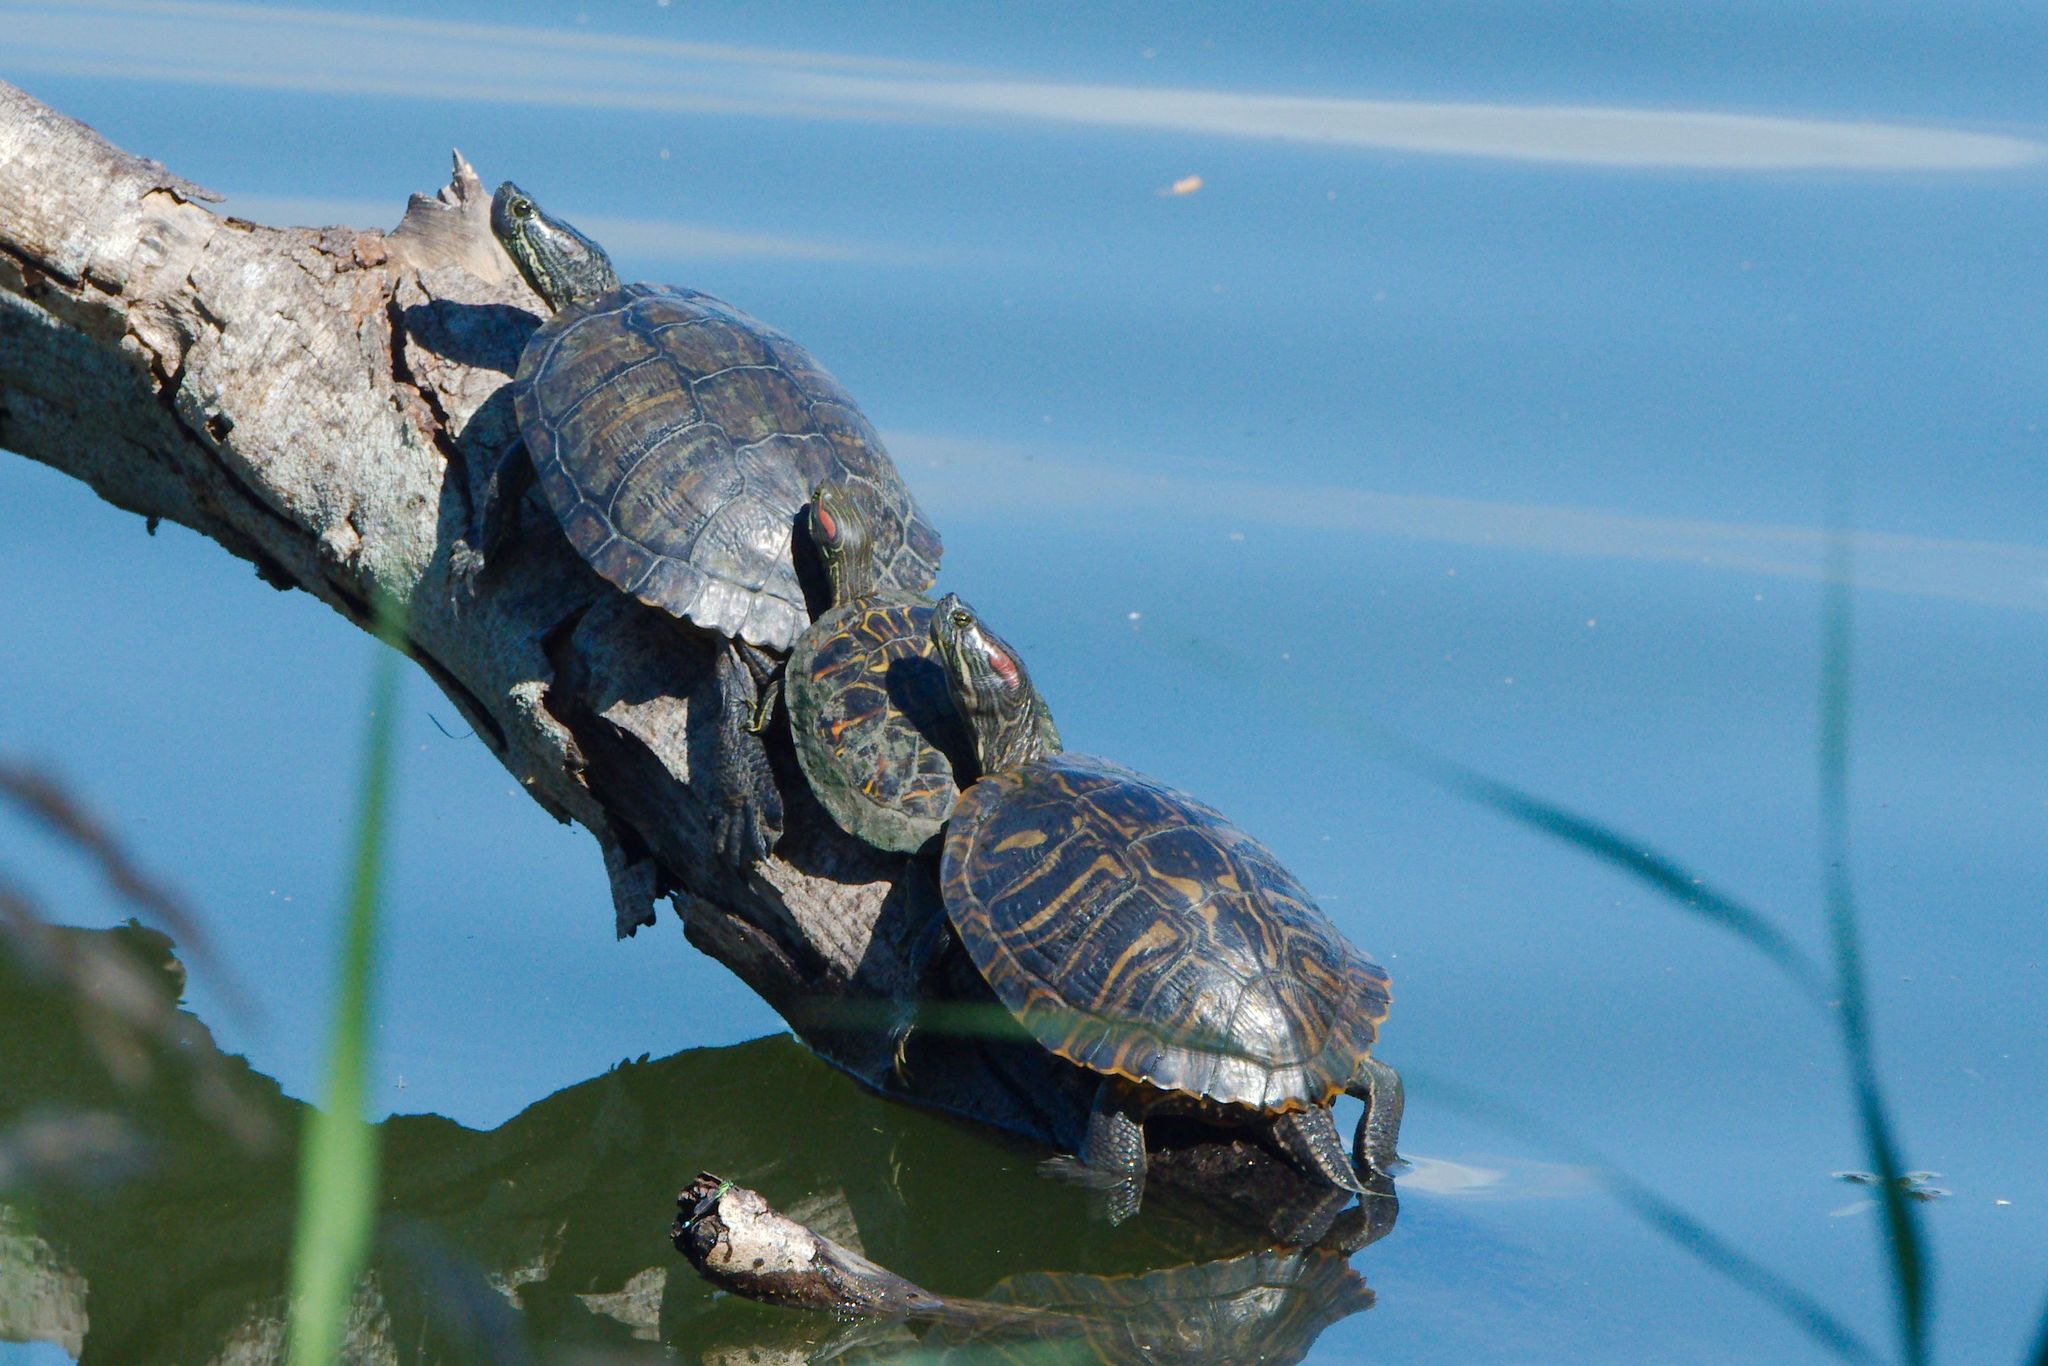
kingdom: Animalia
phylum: Chordata
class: Testudines
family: Emydidae
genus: Trachemys
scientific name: Trachemys scripta
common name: Slider
